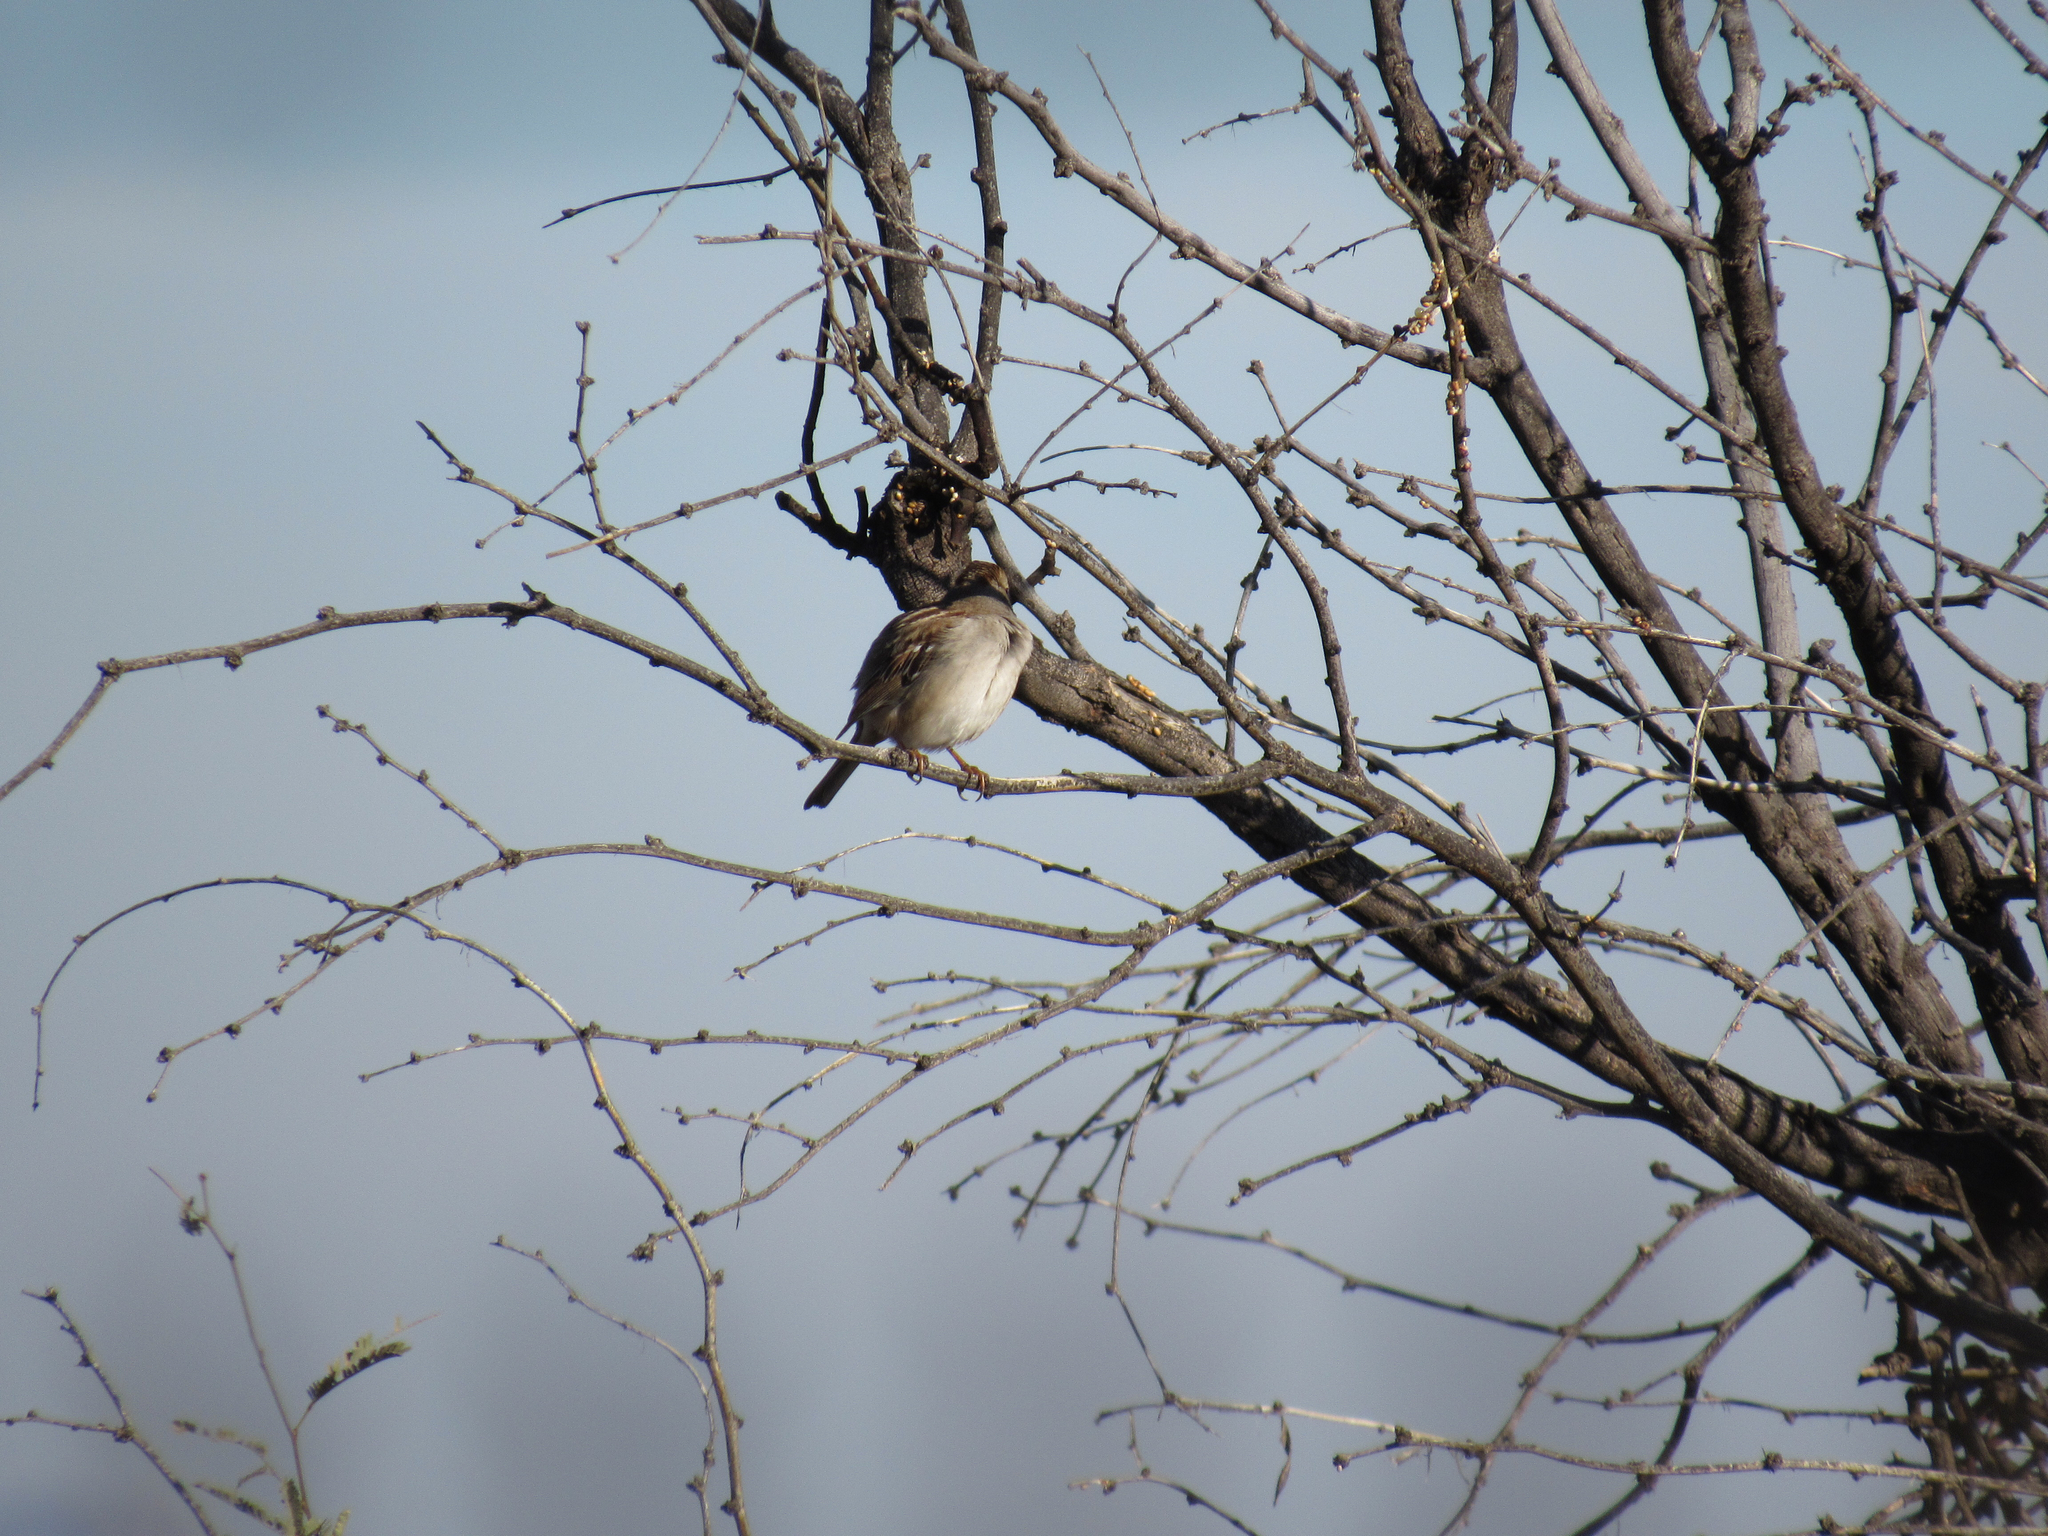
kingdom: Animalia
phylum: Chordata
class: Aves
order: Passeriformes
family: Passerellidae
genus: Zonotrichia
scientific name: Zonotrichia leucophrys
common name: White-crowned sparrow
